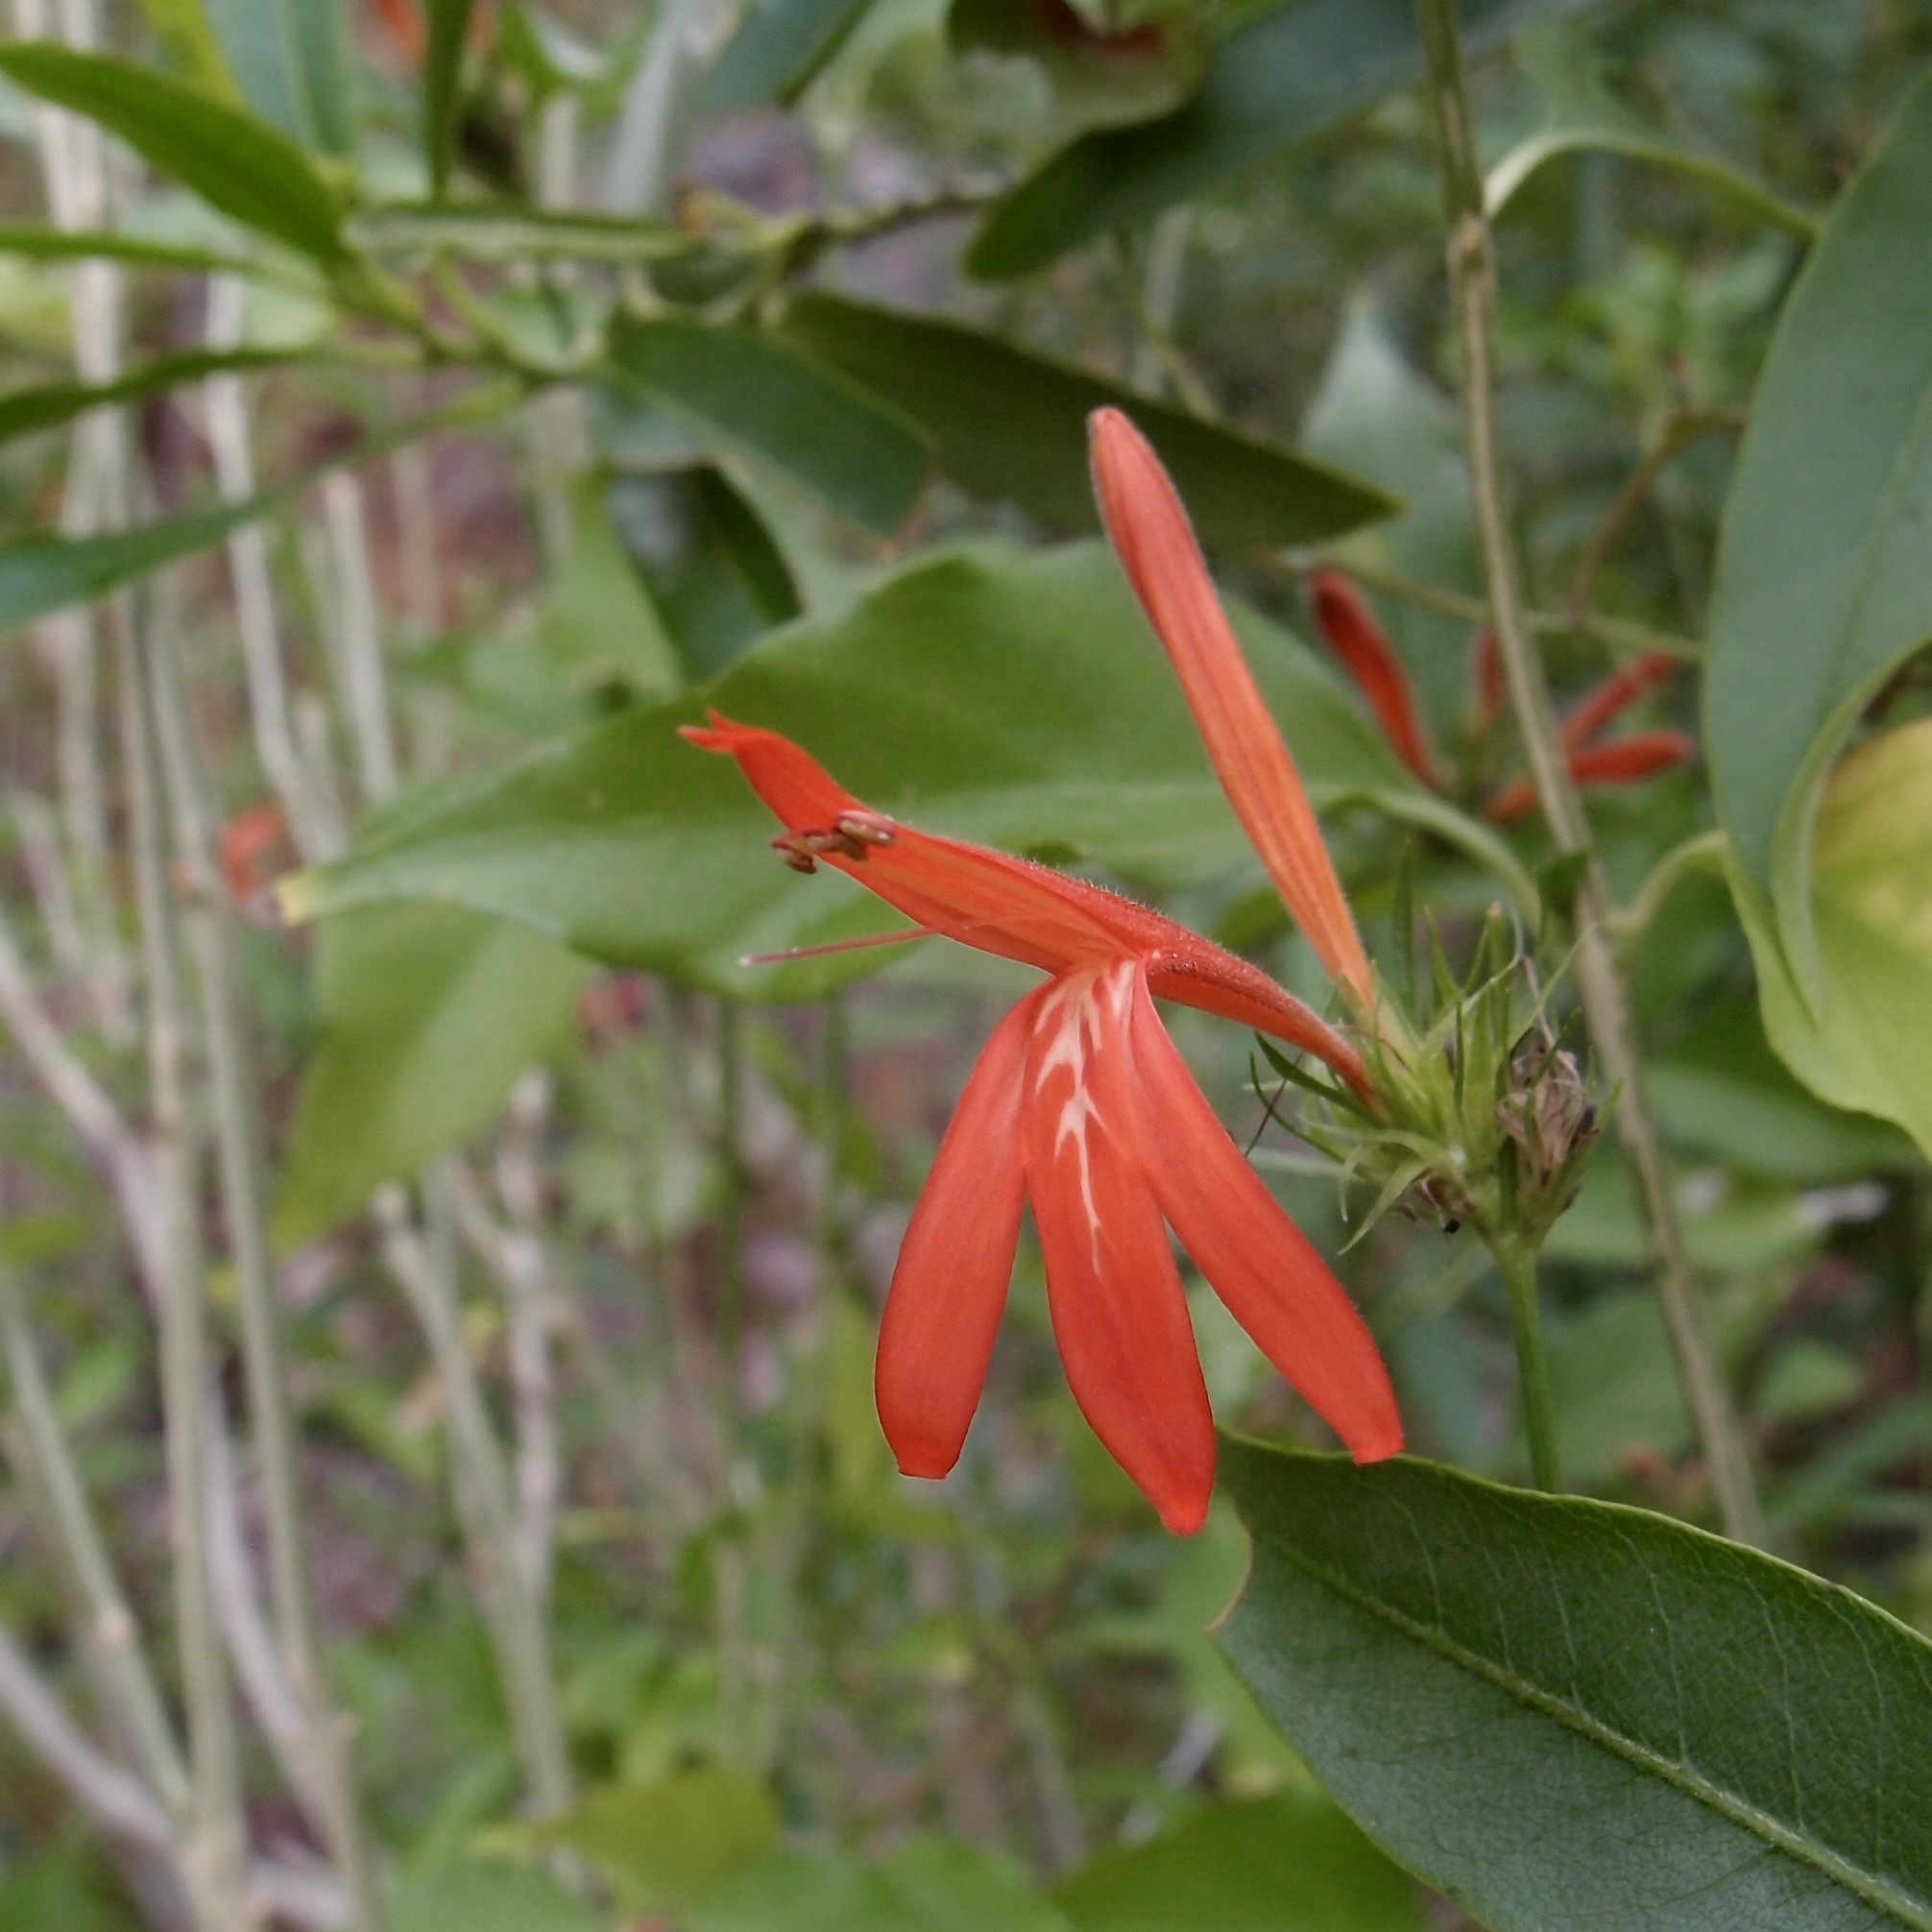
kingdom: Plantae
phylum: Tracheophyta
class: Magnoliopsida
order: Lamiales
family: Acanthaceae
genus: Dianthera
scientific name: Dianthera candicans
